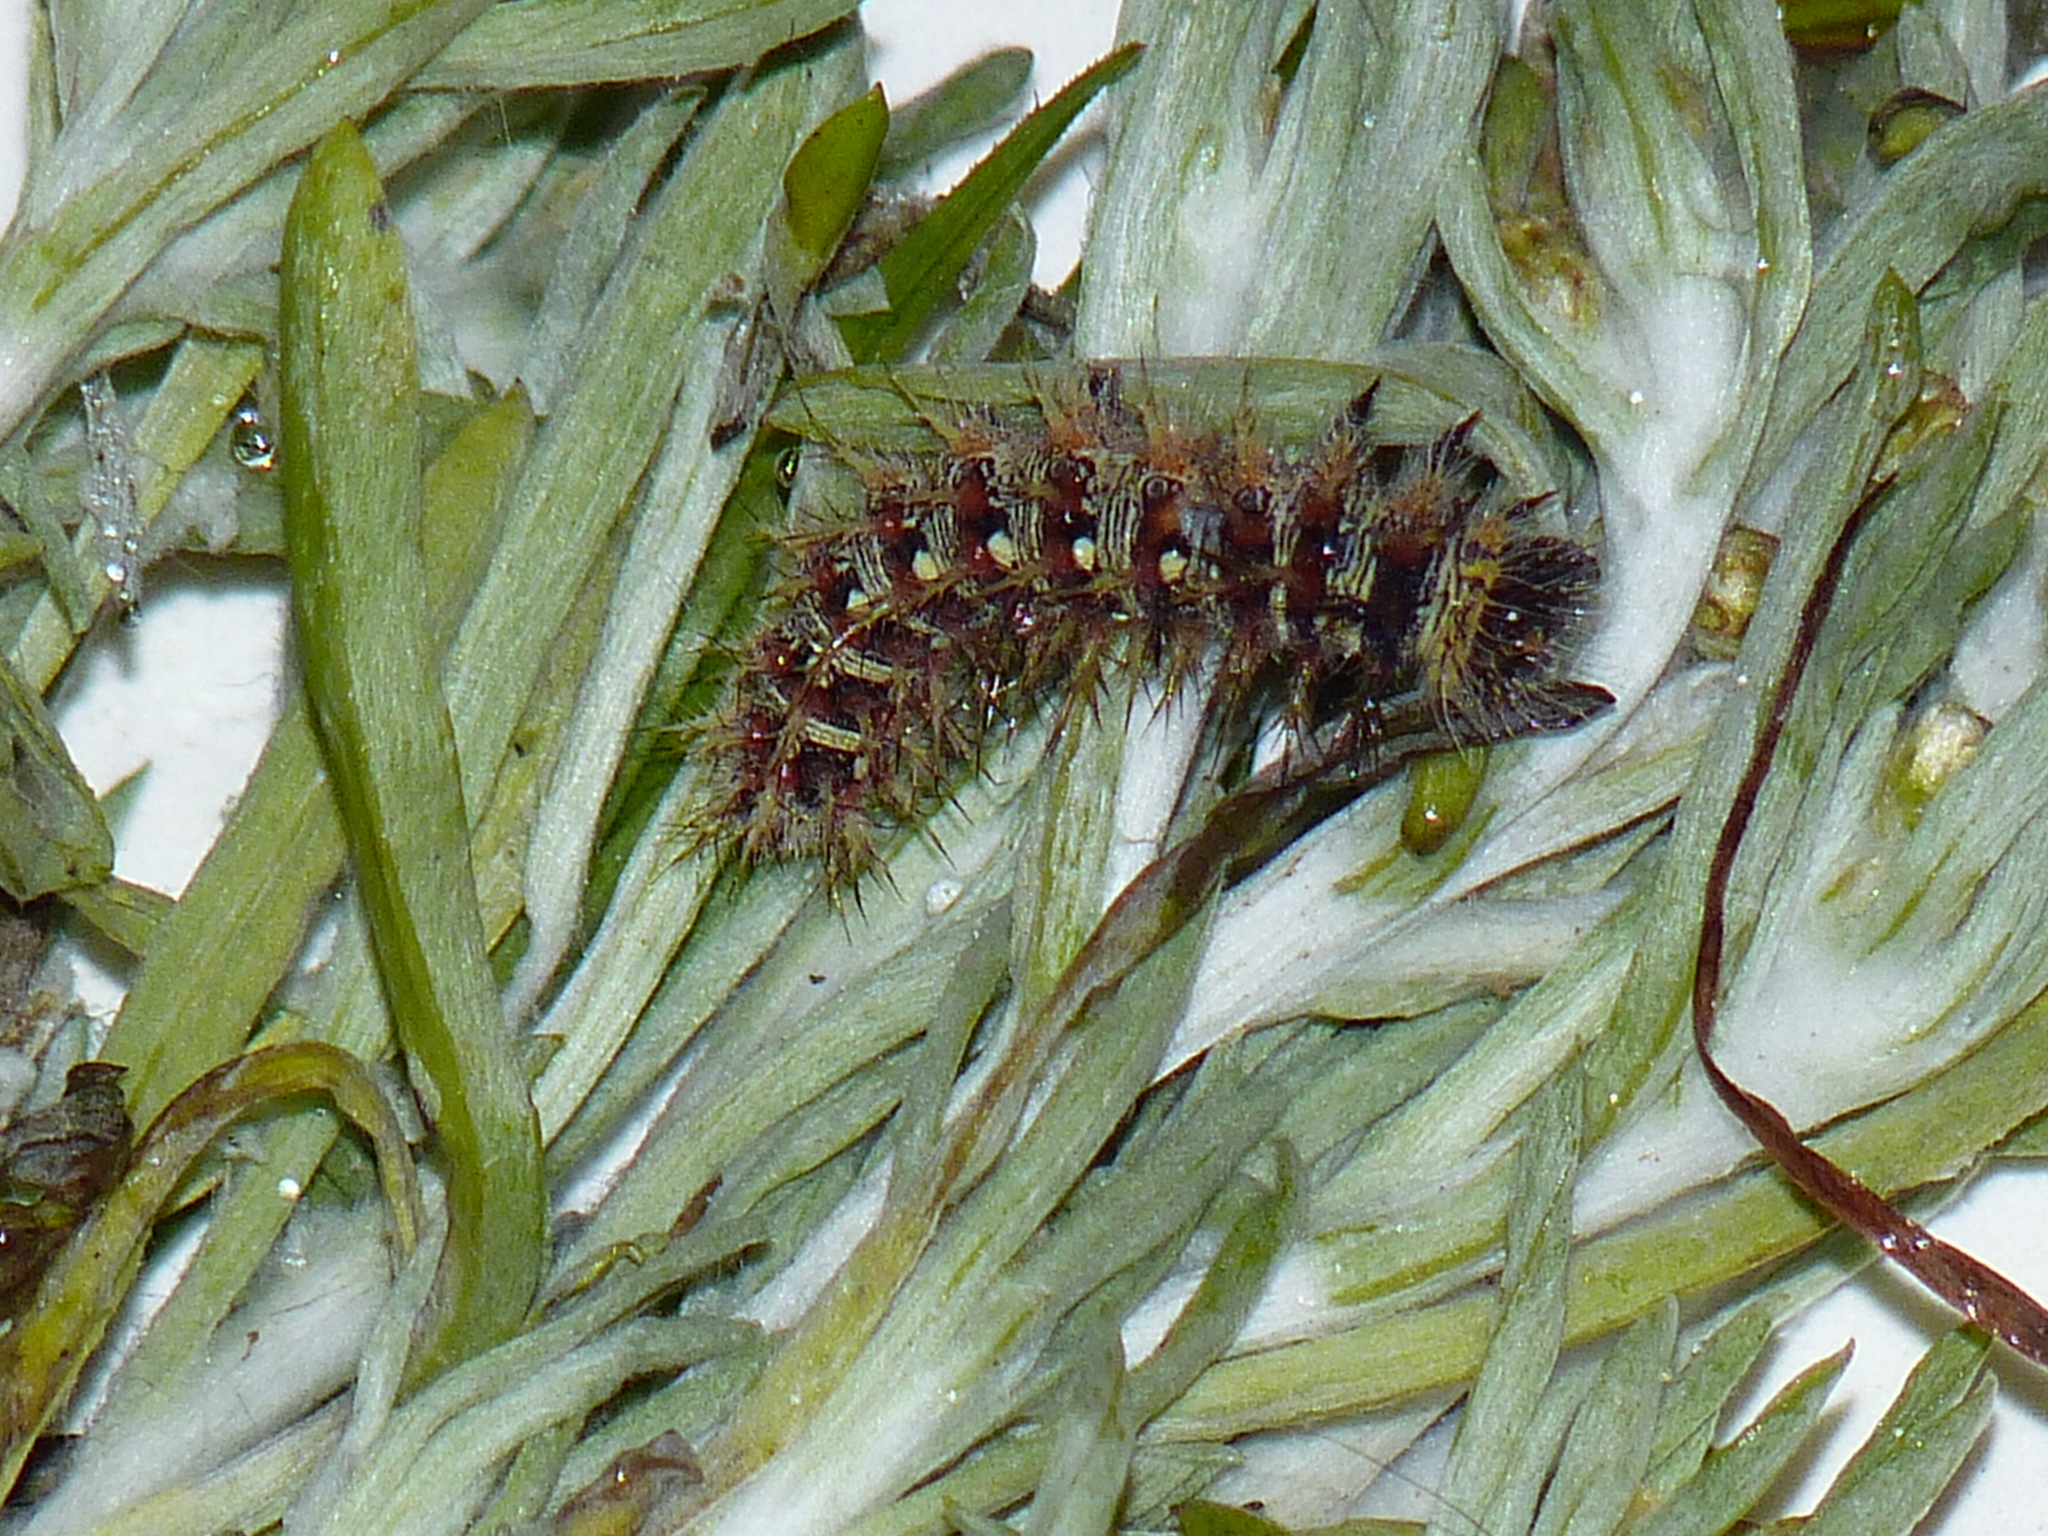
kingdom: Animalia
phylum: Arthropoda
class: Insecta
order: Lepidoptera
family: Nymphalidae
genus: Vanessa
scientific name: Vanessa virginiensis
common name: American lady
